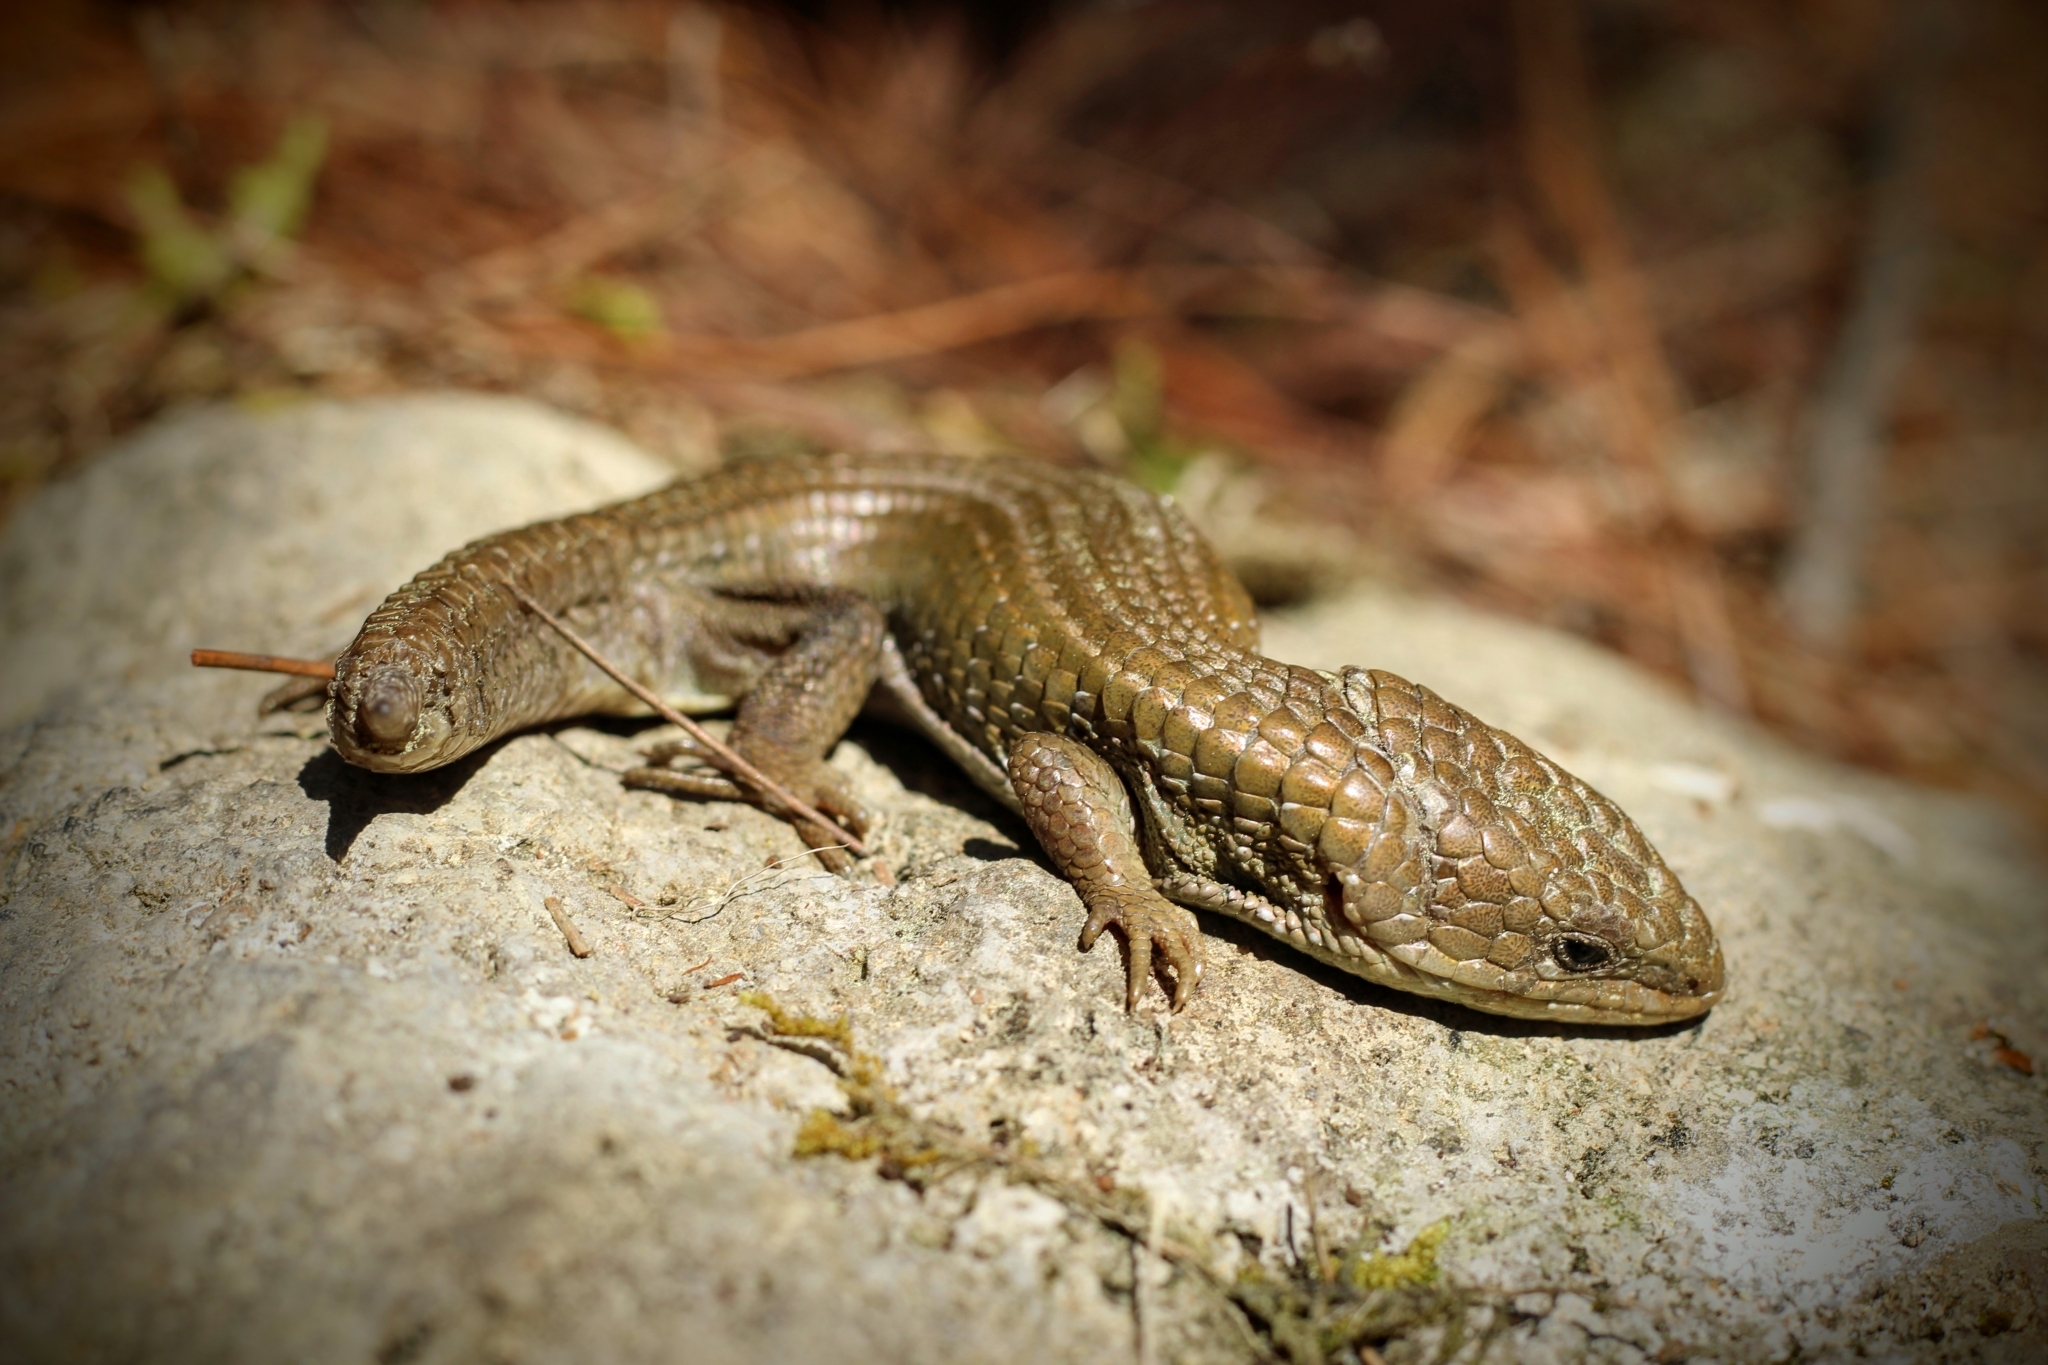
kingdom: Animalia
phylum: Chordata
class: Squamata
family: Anguidae
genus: Barisia
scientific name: Barisia imbricata
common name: Imbricate alligator lizard
